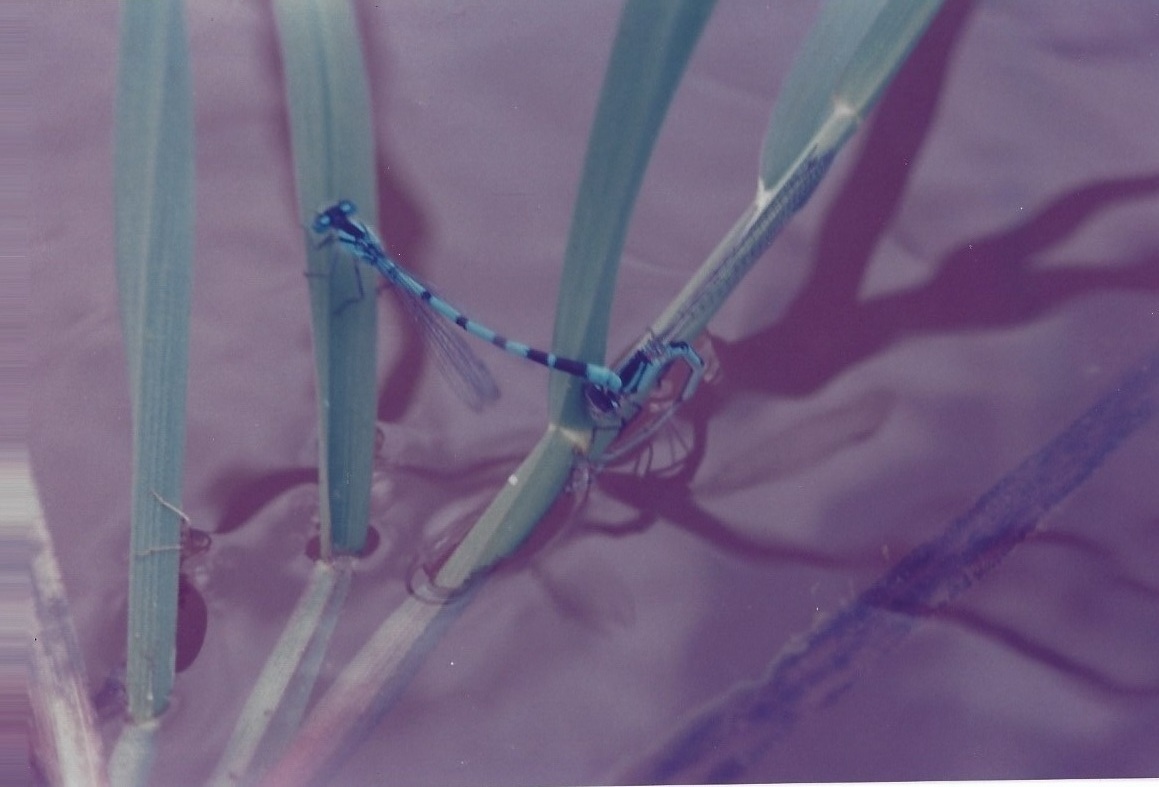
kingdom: Animalia
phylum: Arthropoda
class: Insecta
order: Odonata
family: Coenagrionidae
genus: Enallagma
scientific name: Enallagma cyathigerum
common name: Common blue damselfly
